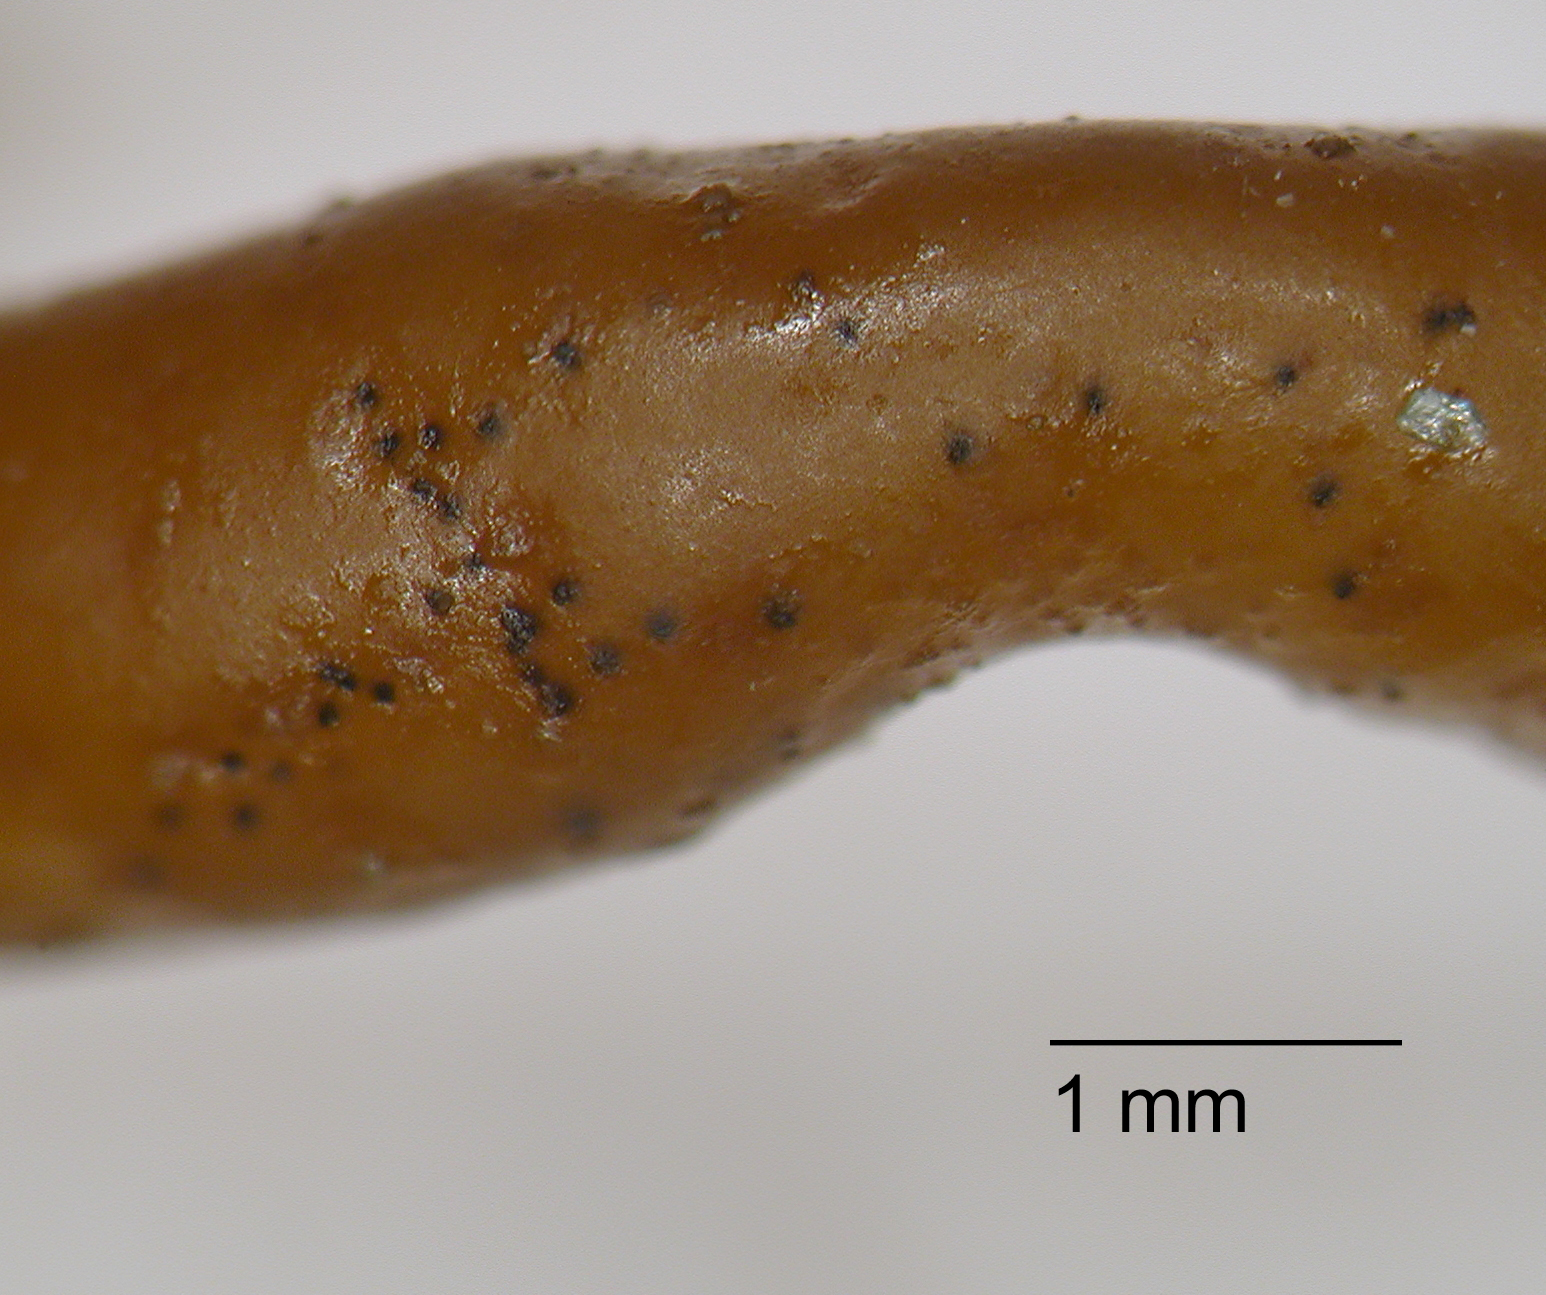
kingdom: Fungi
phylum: Ascomycota
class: Dothideomycetes
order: Mycosphaerellales
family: Mycosphaerellaceae
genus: Stigmidium
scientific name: Stigmidium apophlaeae
